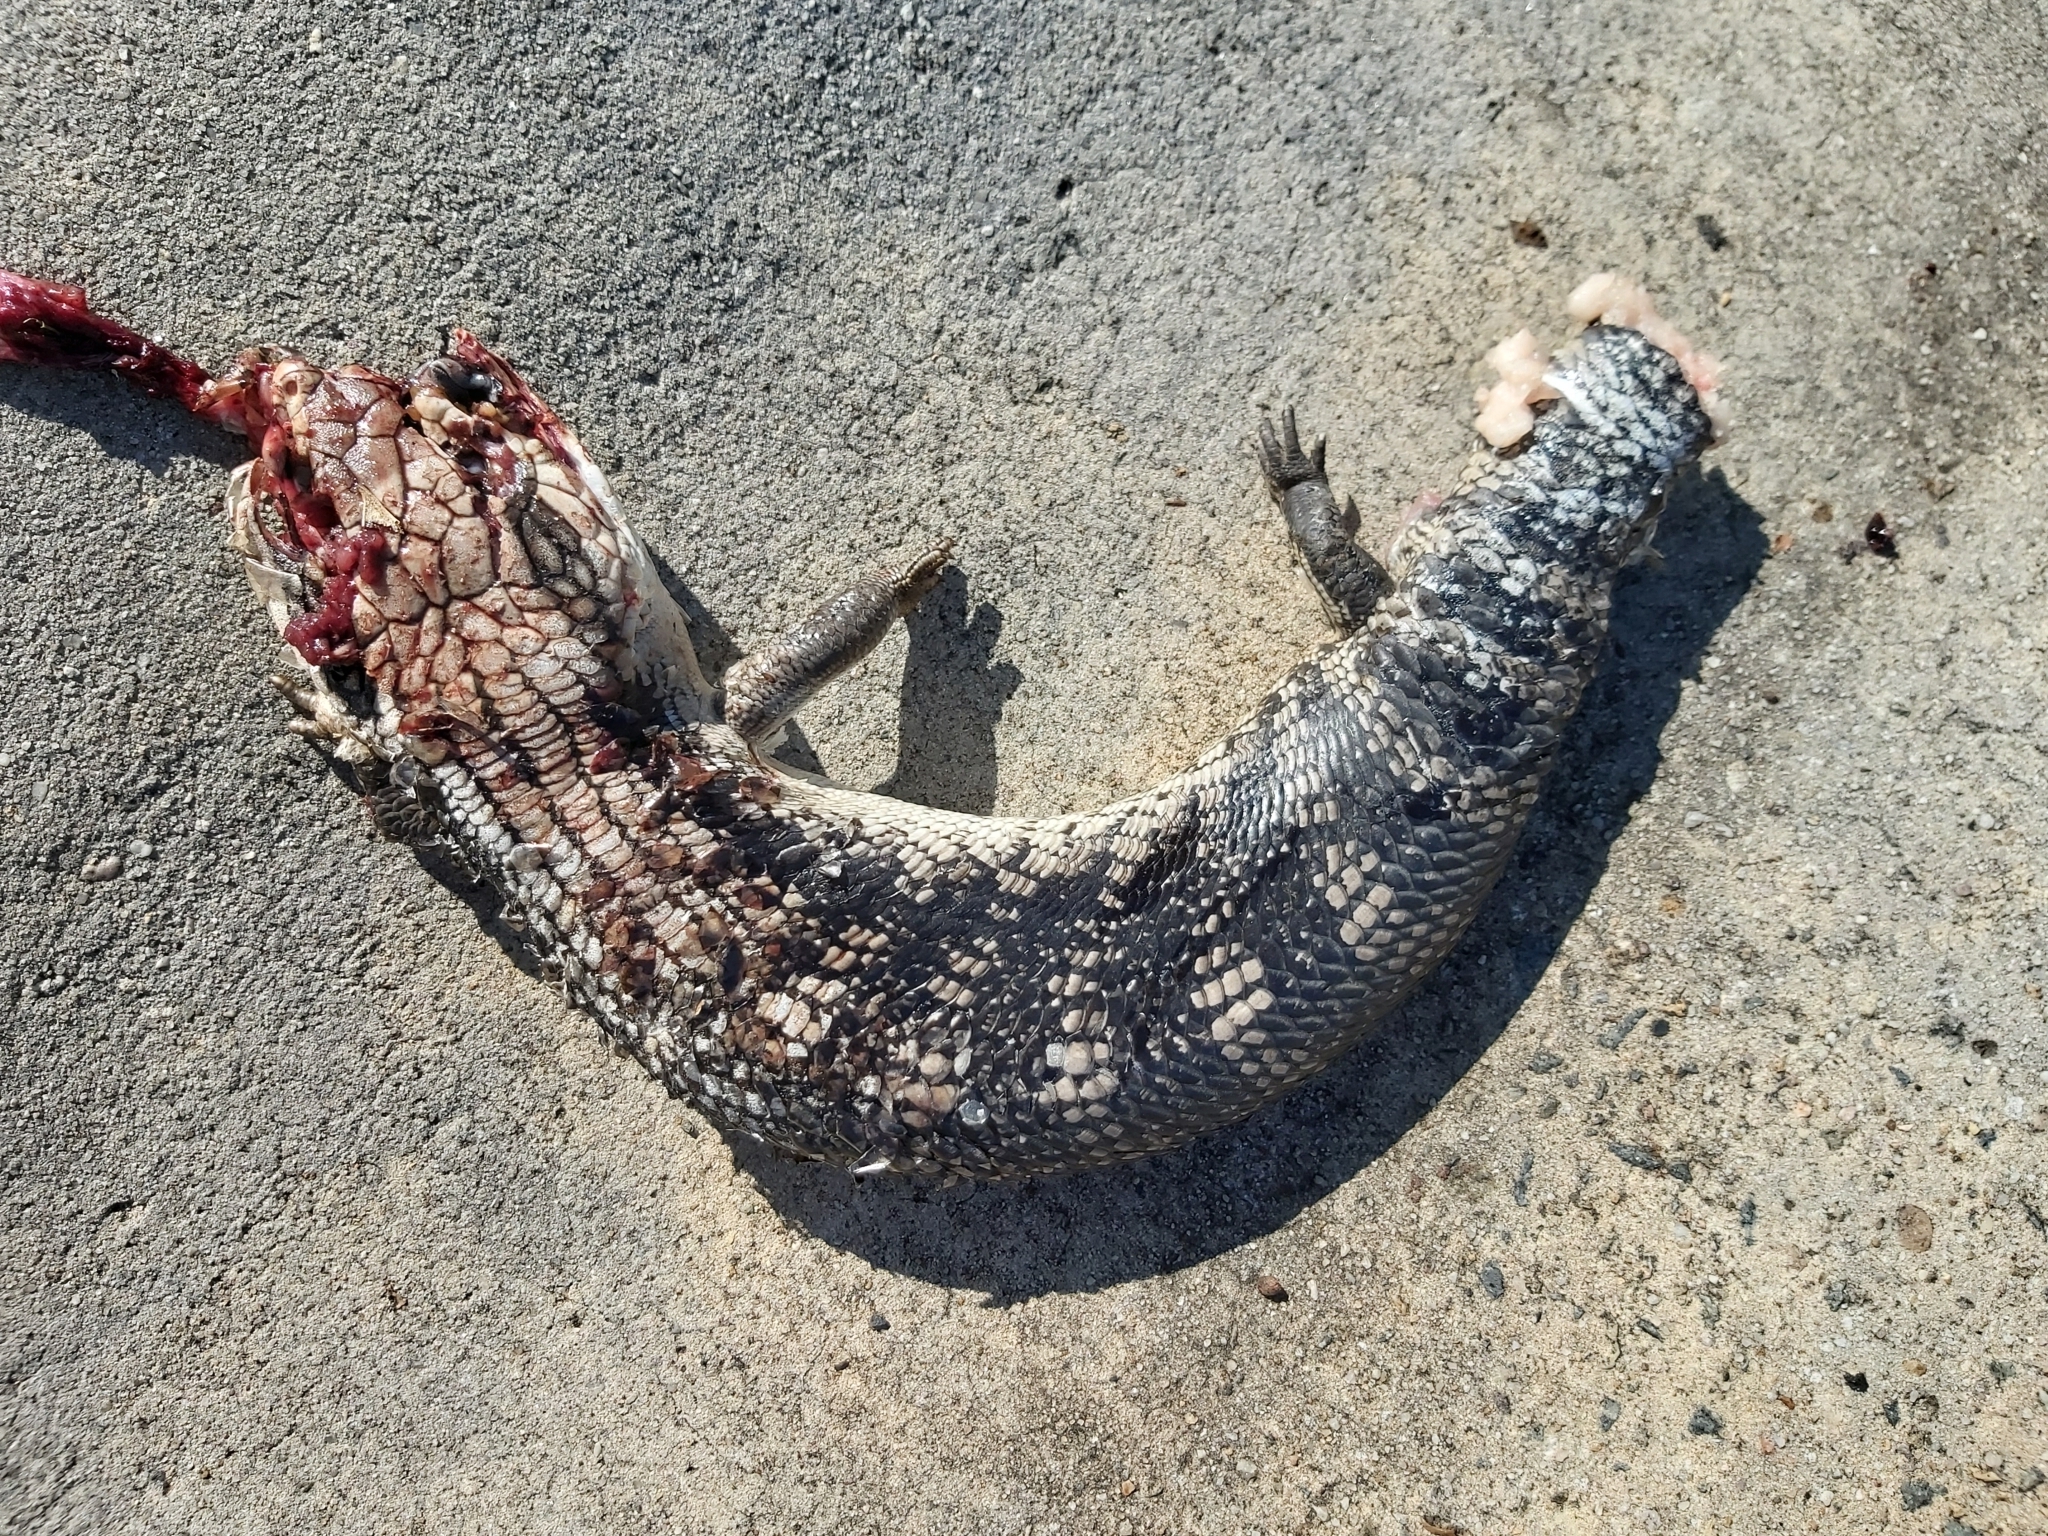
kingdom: Animalia
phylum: Chordata
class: Squamata
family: Scincidae
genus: Tiliqua
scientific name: Tiliqua scincoides
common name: Common bluetongue
